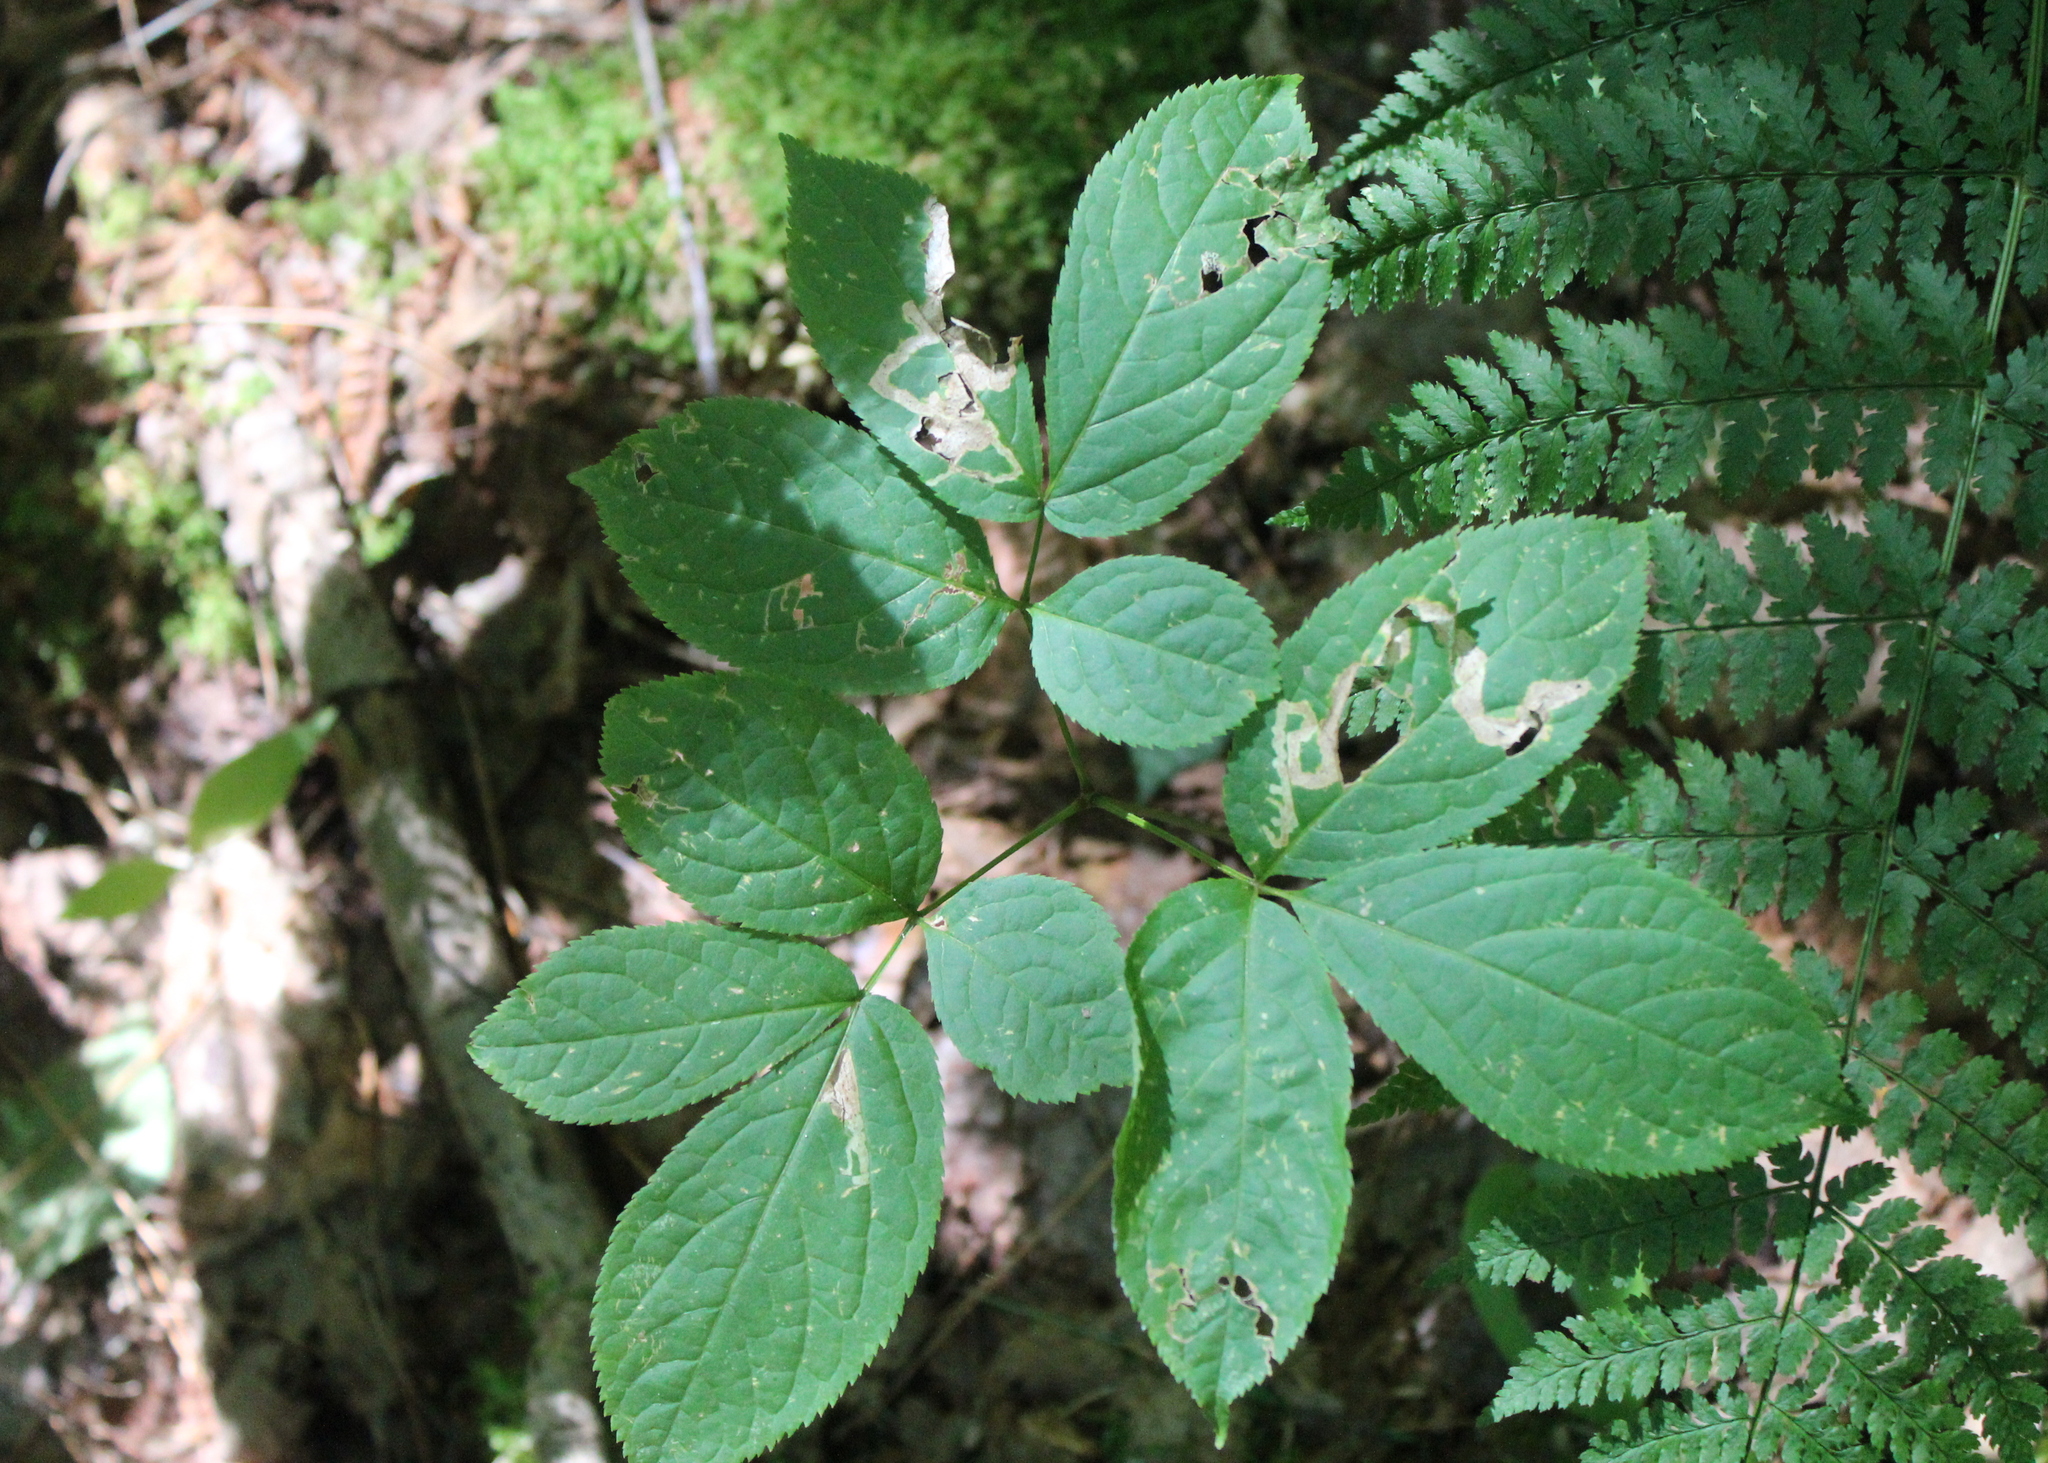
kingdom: Plantae
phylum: Tracheophyta
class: Magnoliopsida
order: Apiales
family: Araliaceae
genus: Aralia
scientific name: Aralia nudicaulis
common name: Wild sarsaparilla
